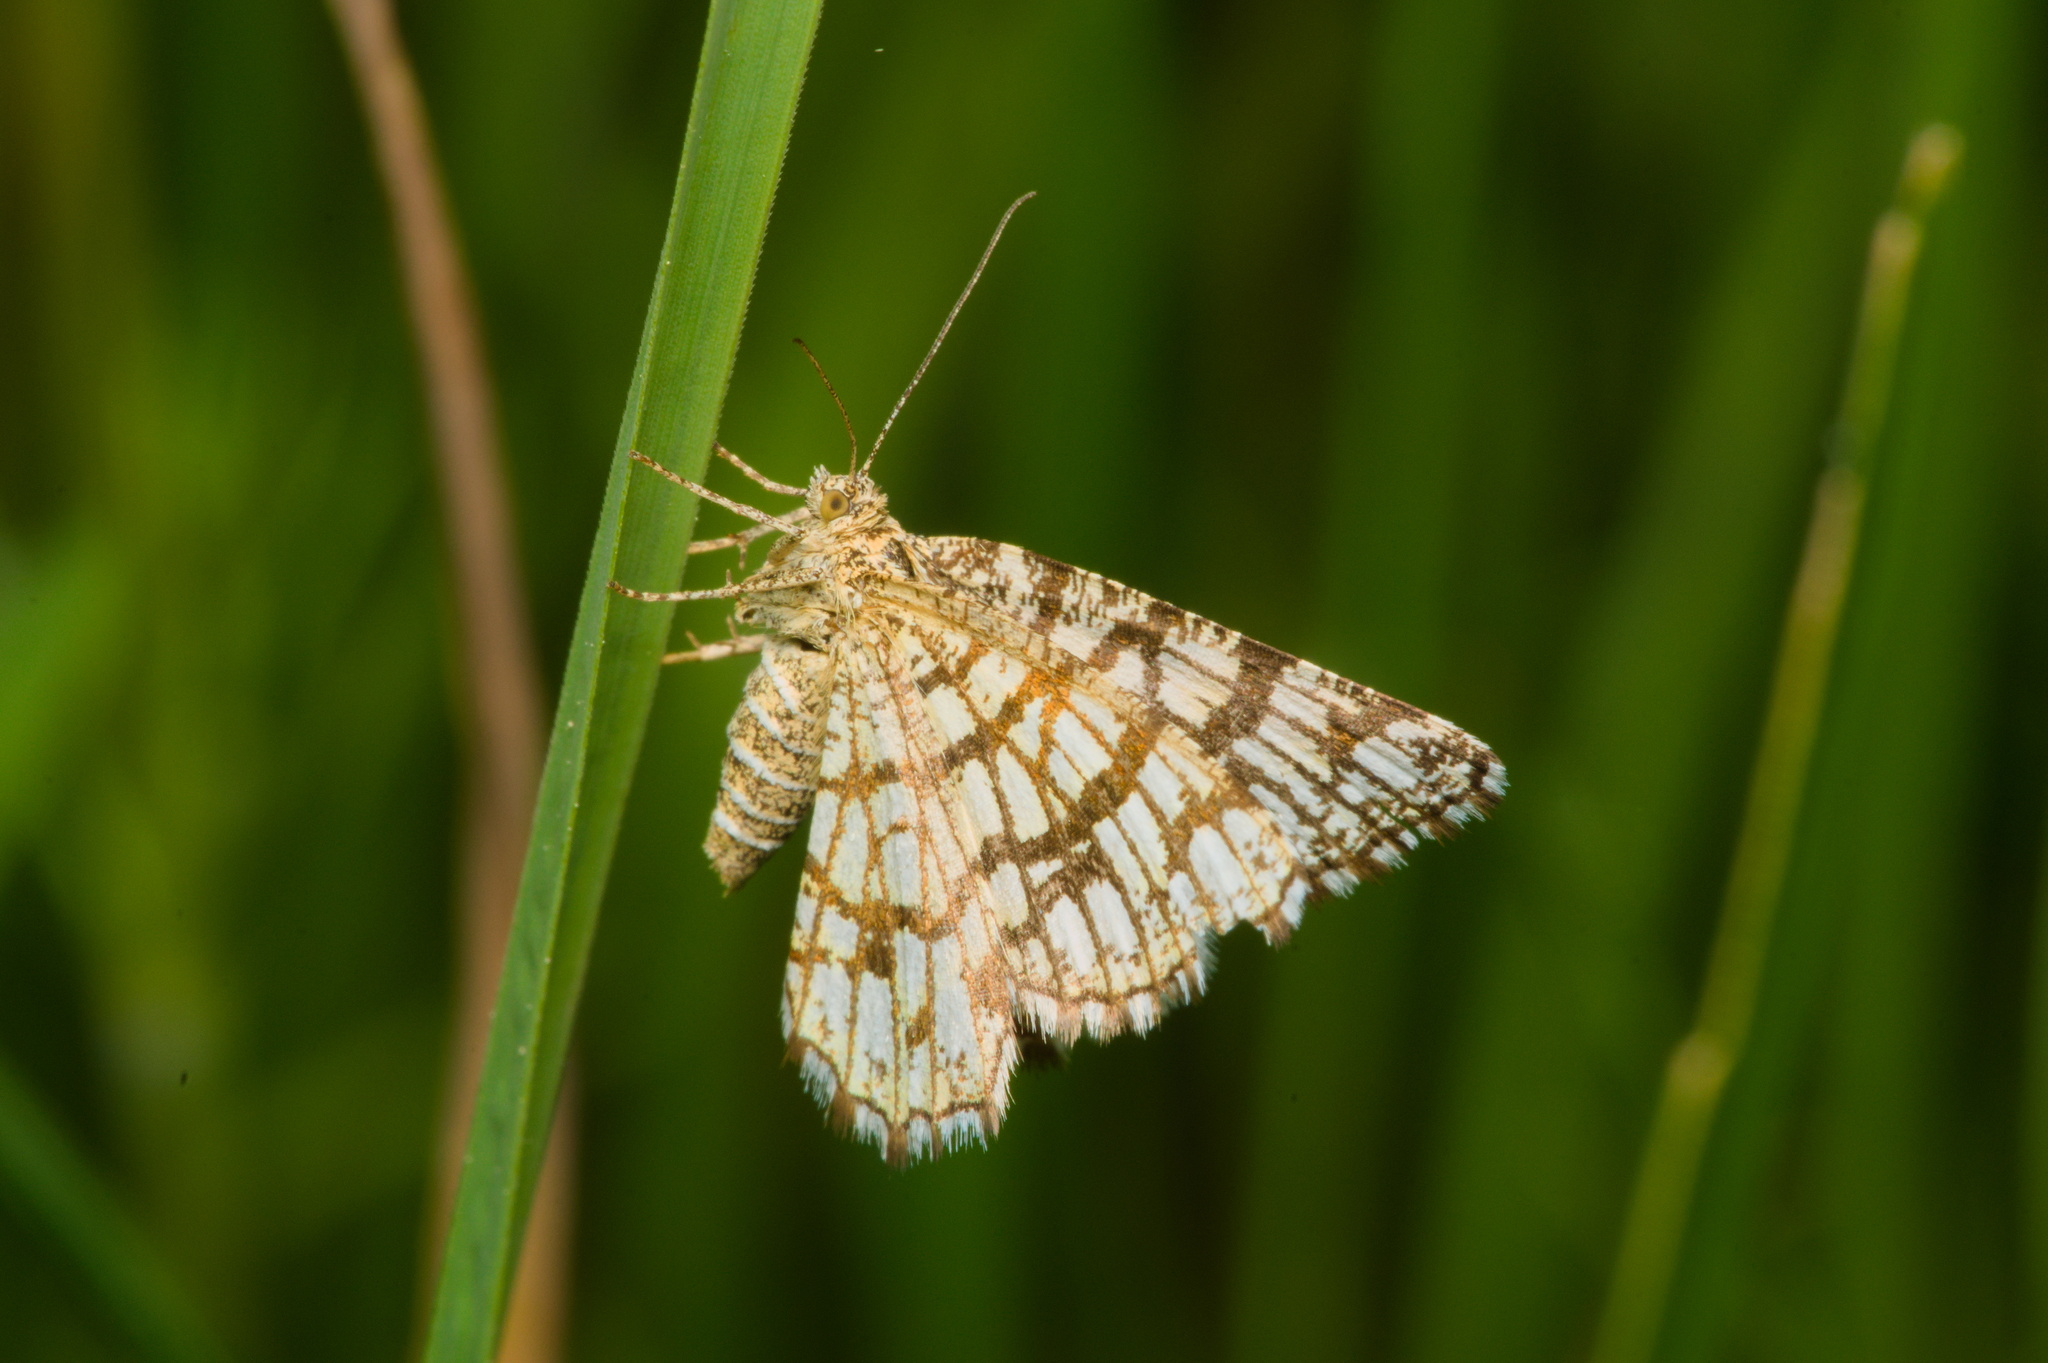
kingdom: Animalia
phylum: Arthropoda
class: Insecta
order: Lepidoptera
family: Geometridae
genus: Chiasmia
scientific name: Chiasmia clathrata
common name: Latticed heath
